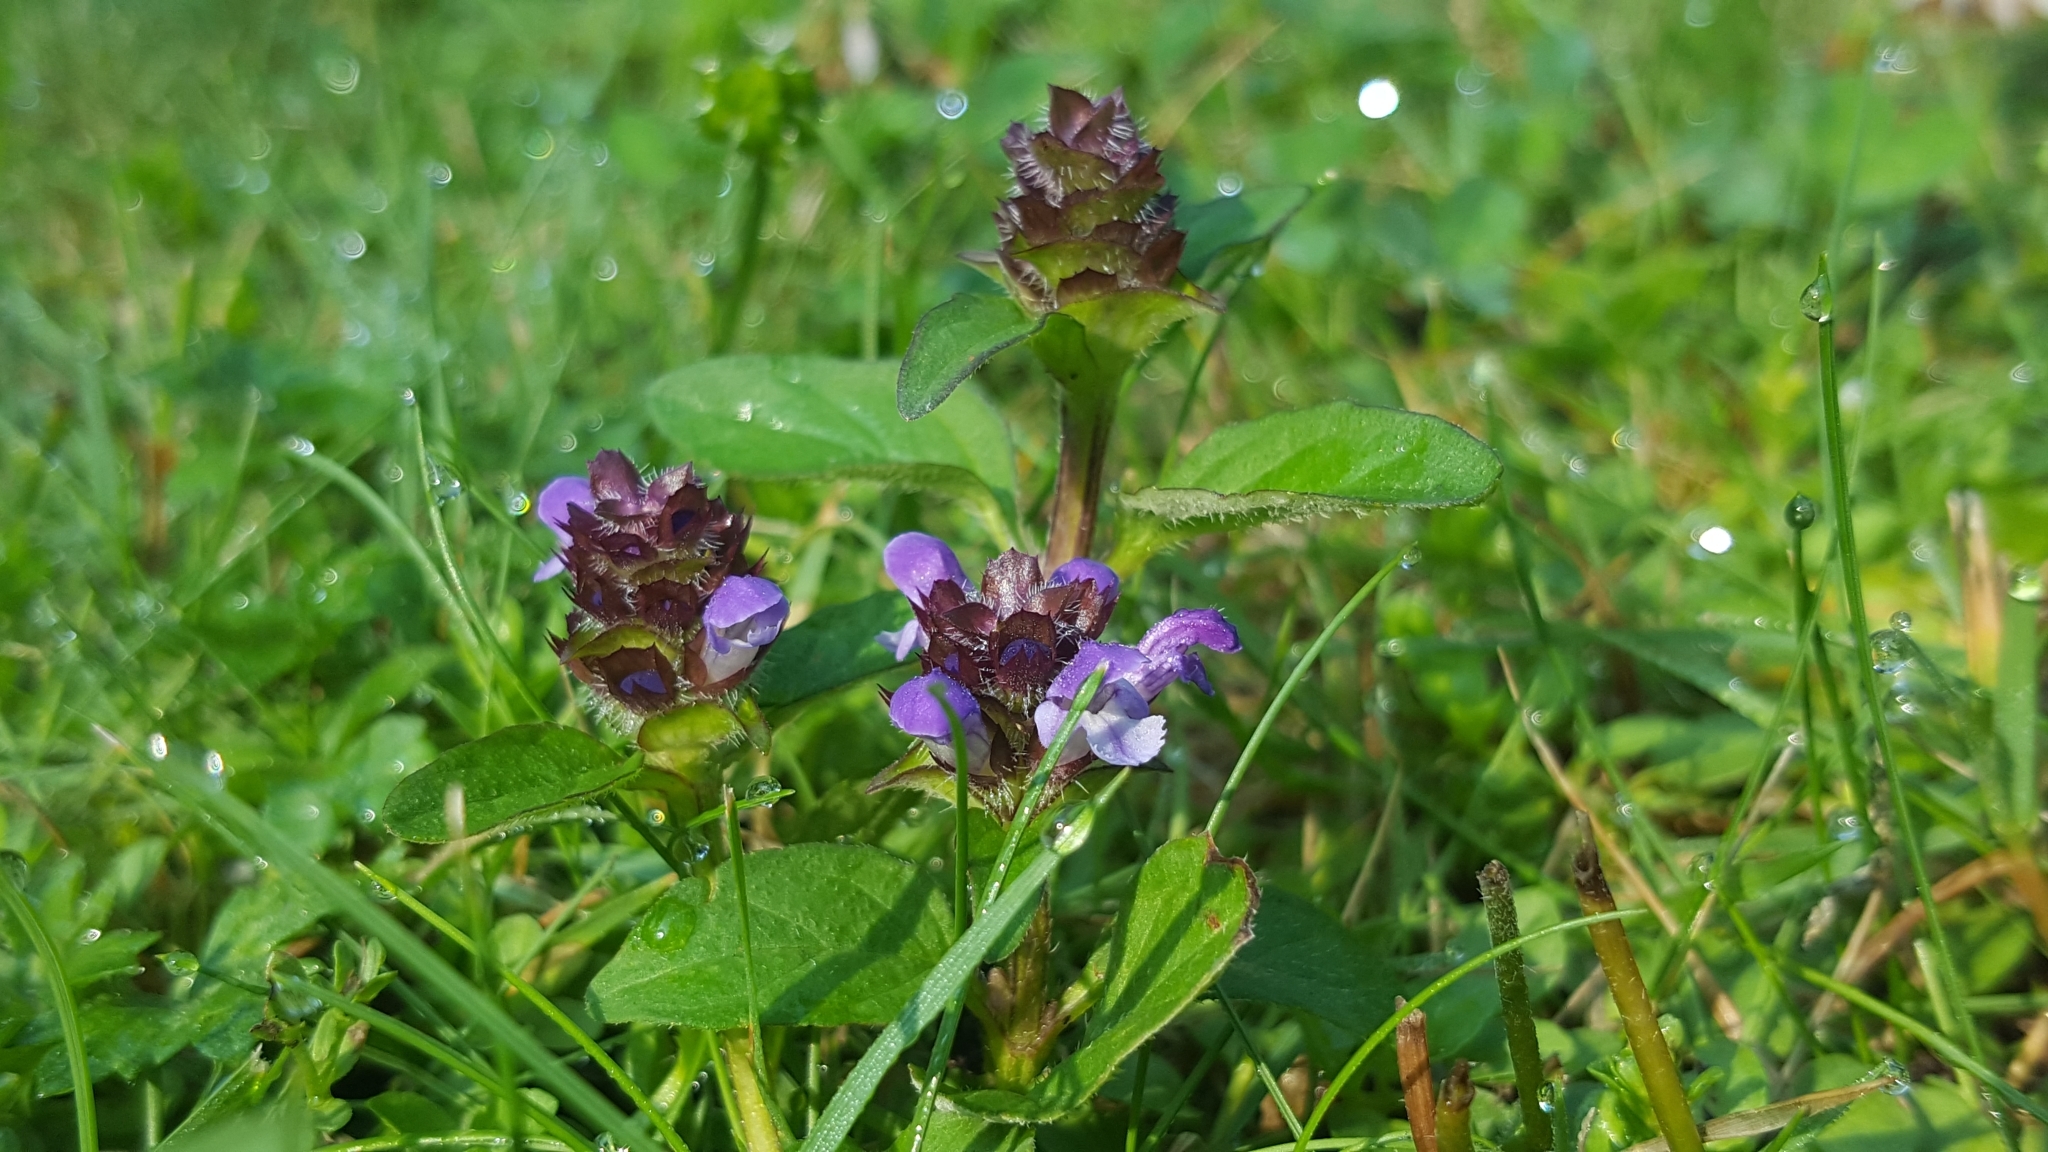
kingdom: Plantae
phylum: Tracheophyta
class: Magnoliopsida
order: Lamiales
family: Lamiaceae
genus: Prunella
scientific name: Prunella vulgaris
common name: Heal-all
